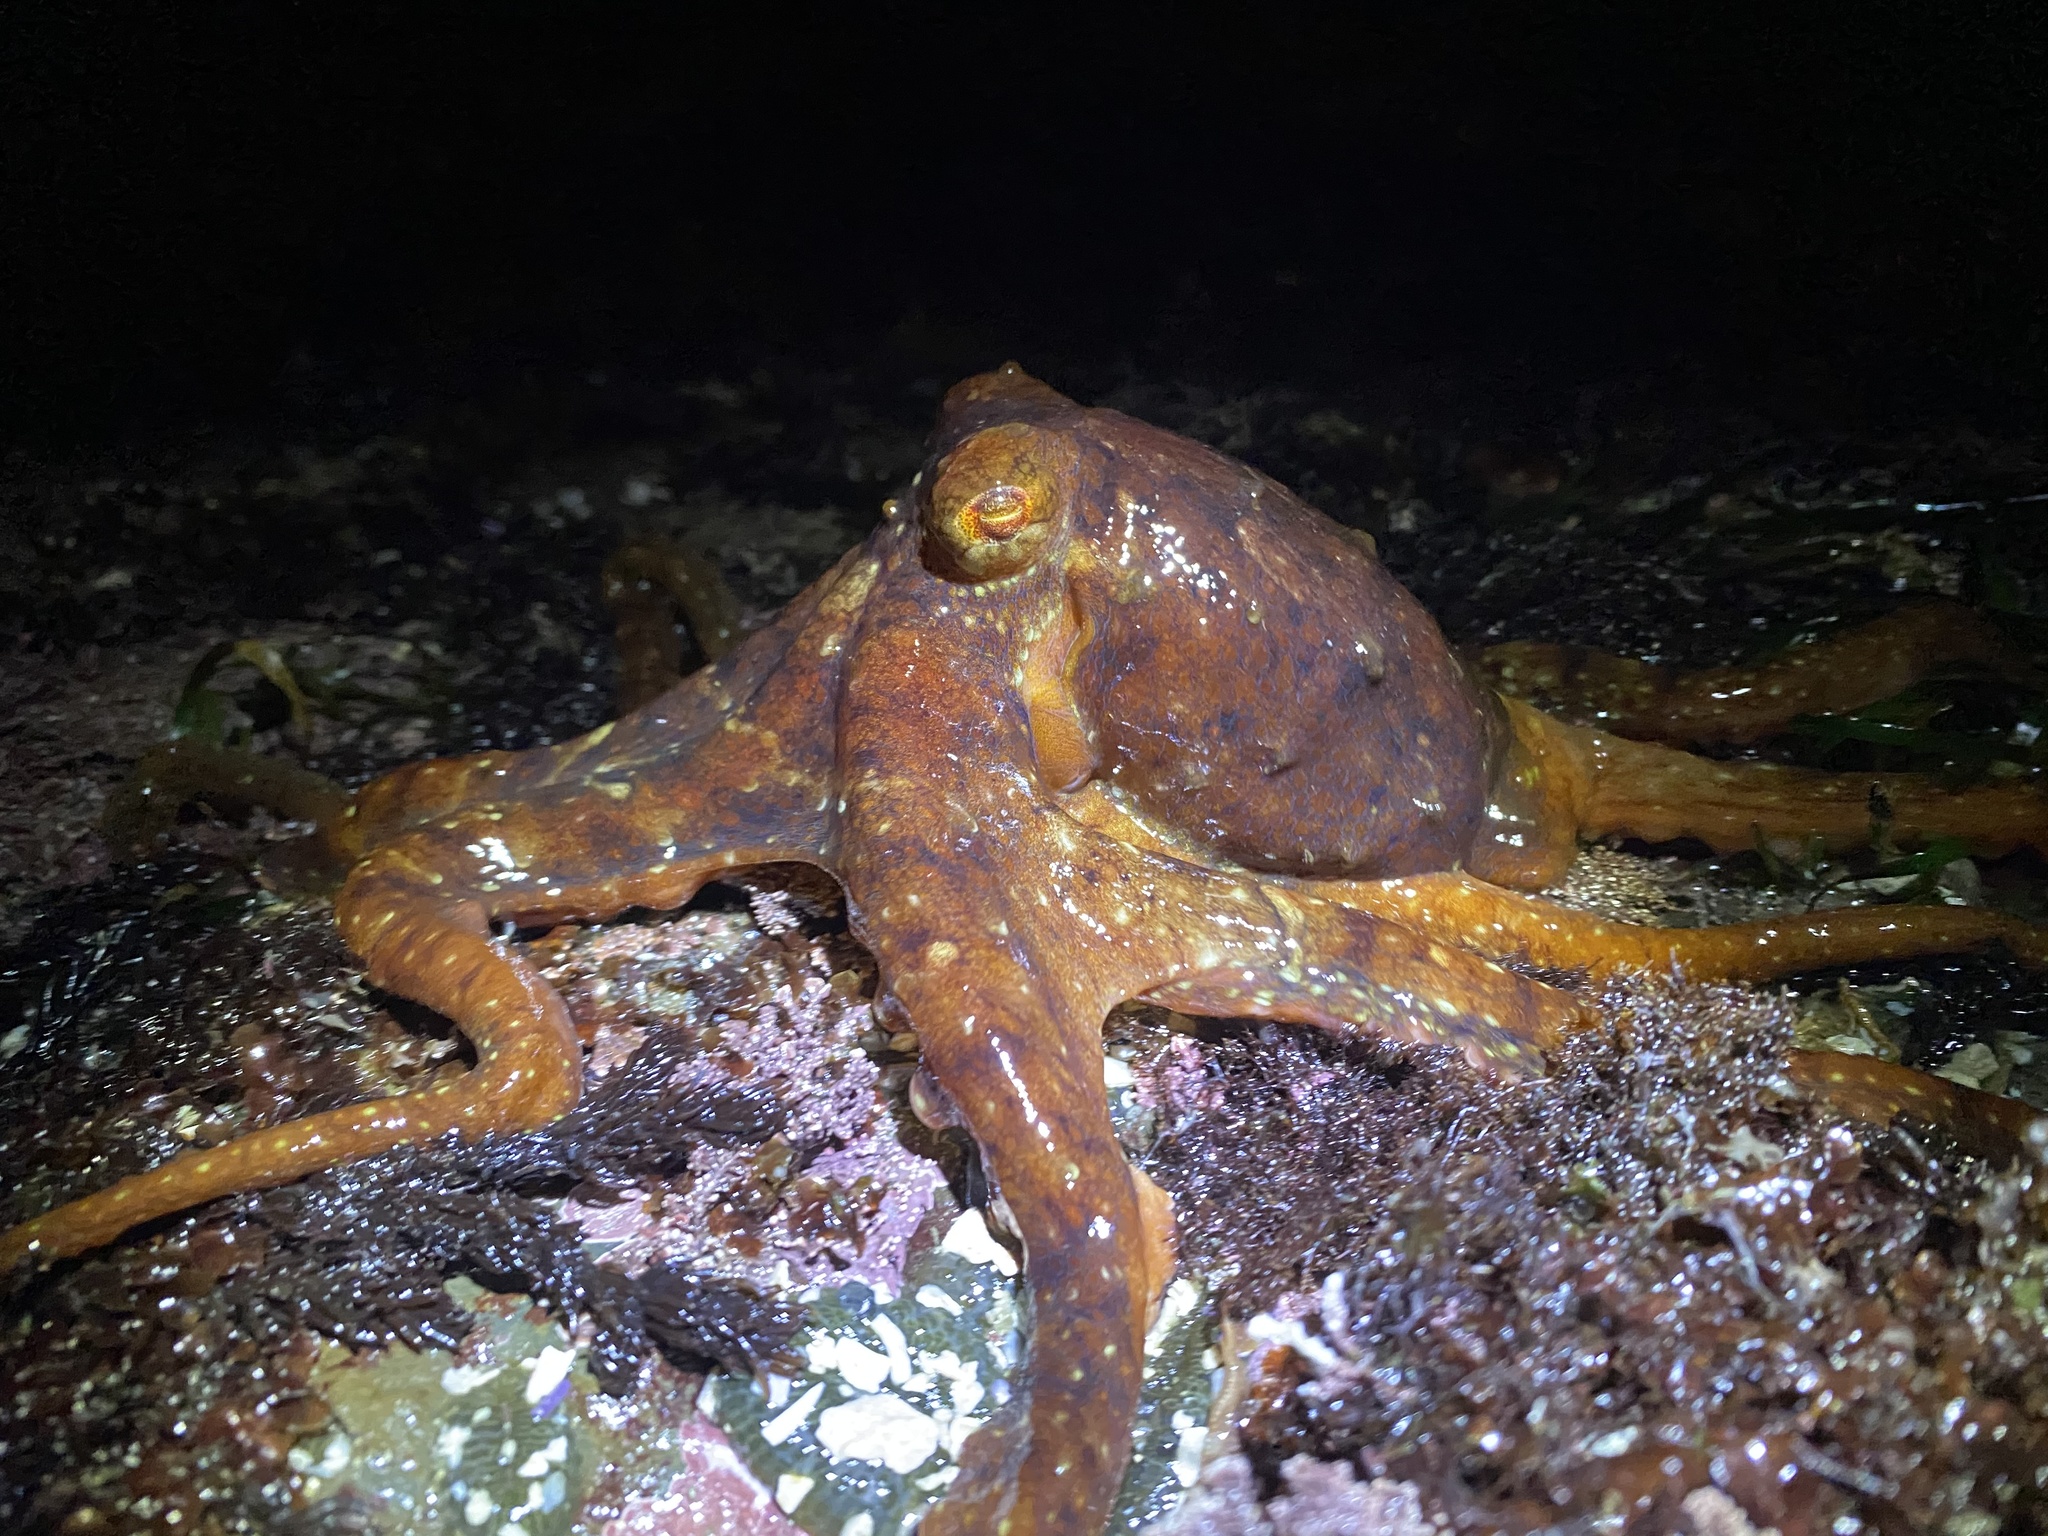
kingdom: Animalia
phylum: Mollusca
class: Cephalopoda
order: Octopoda
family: Octopodidae
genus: Octopus
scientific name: Octopus rubescens
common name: East pacific red octopus
